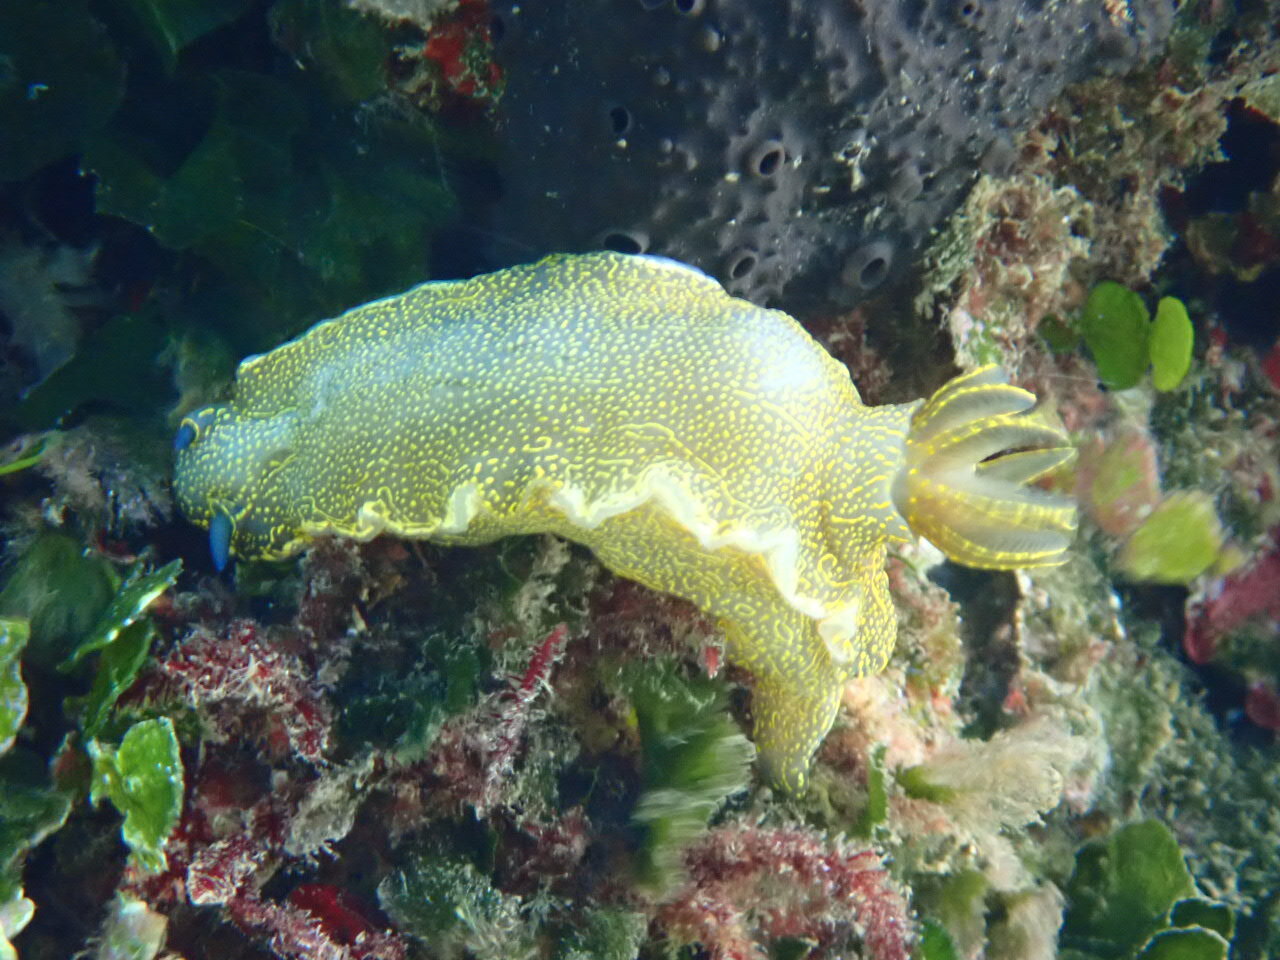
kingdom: Animalia
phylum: Mollusca
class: Gastropoda
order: Nudibranchia
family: Chromodorididae
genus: Felimare
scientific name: Felimare picta
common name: Giant doris
